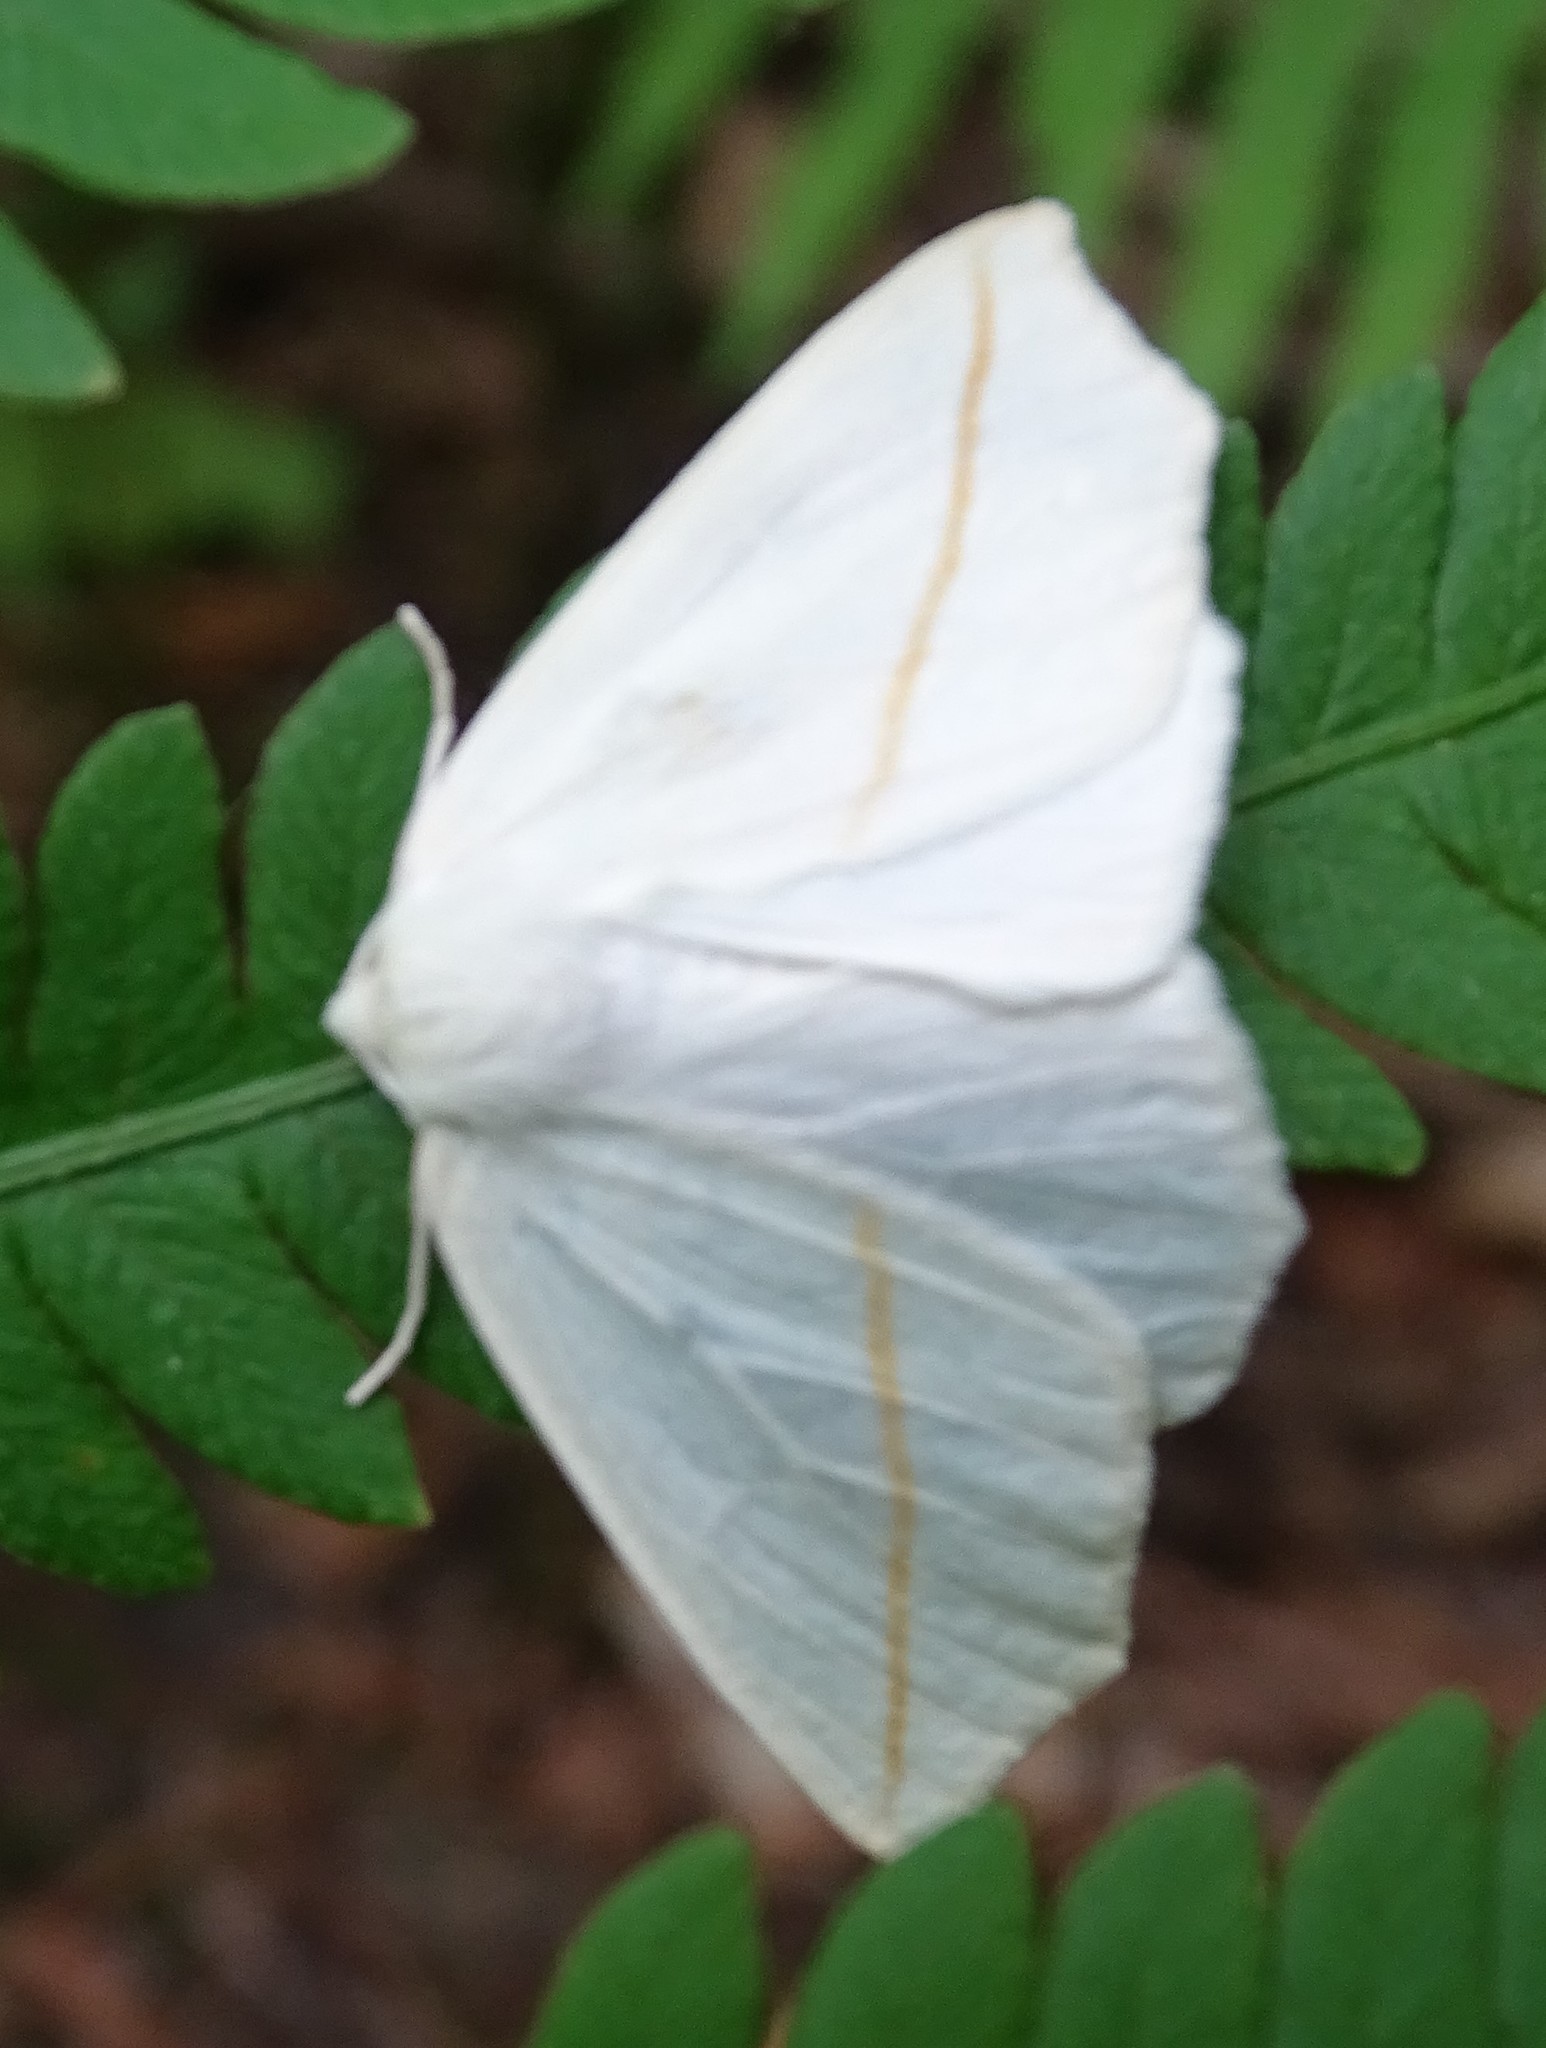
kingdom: Animalia
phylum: Arthropoda
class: Insecta
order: Lepidoptera
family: Geometridae
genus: Tetracis
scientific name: Tetracis cachexiata
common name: White slant-line
